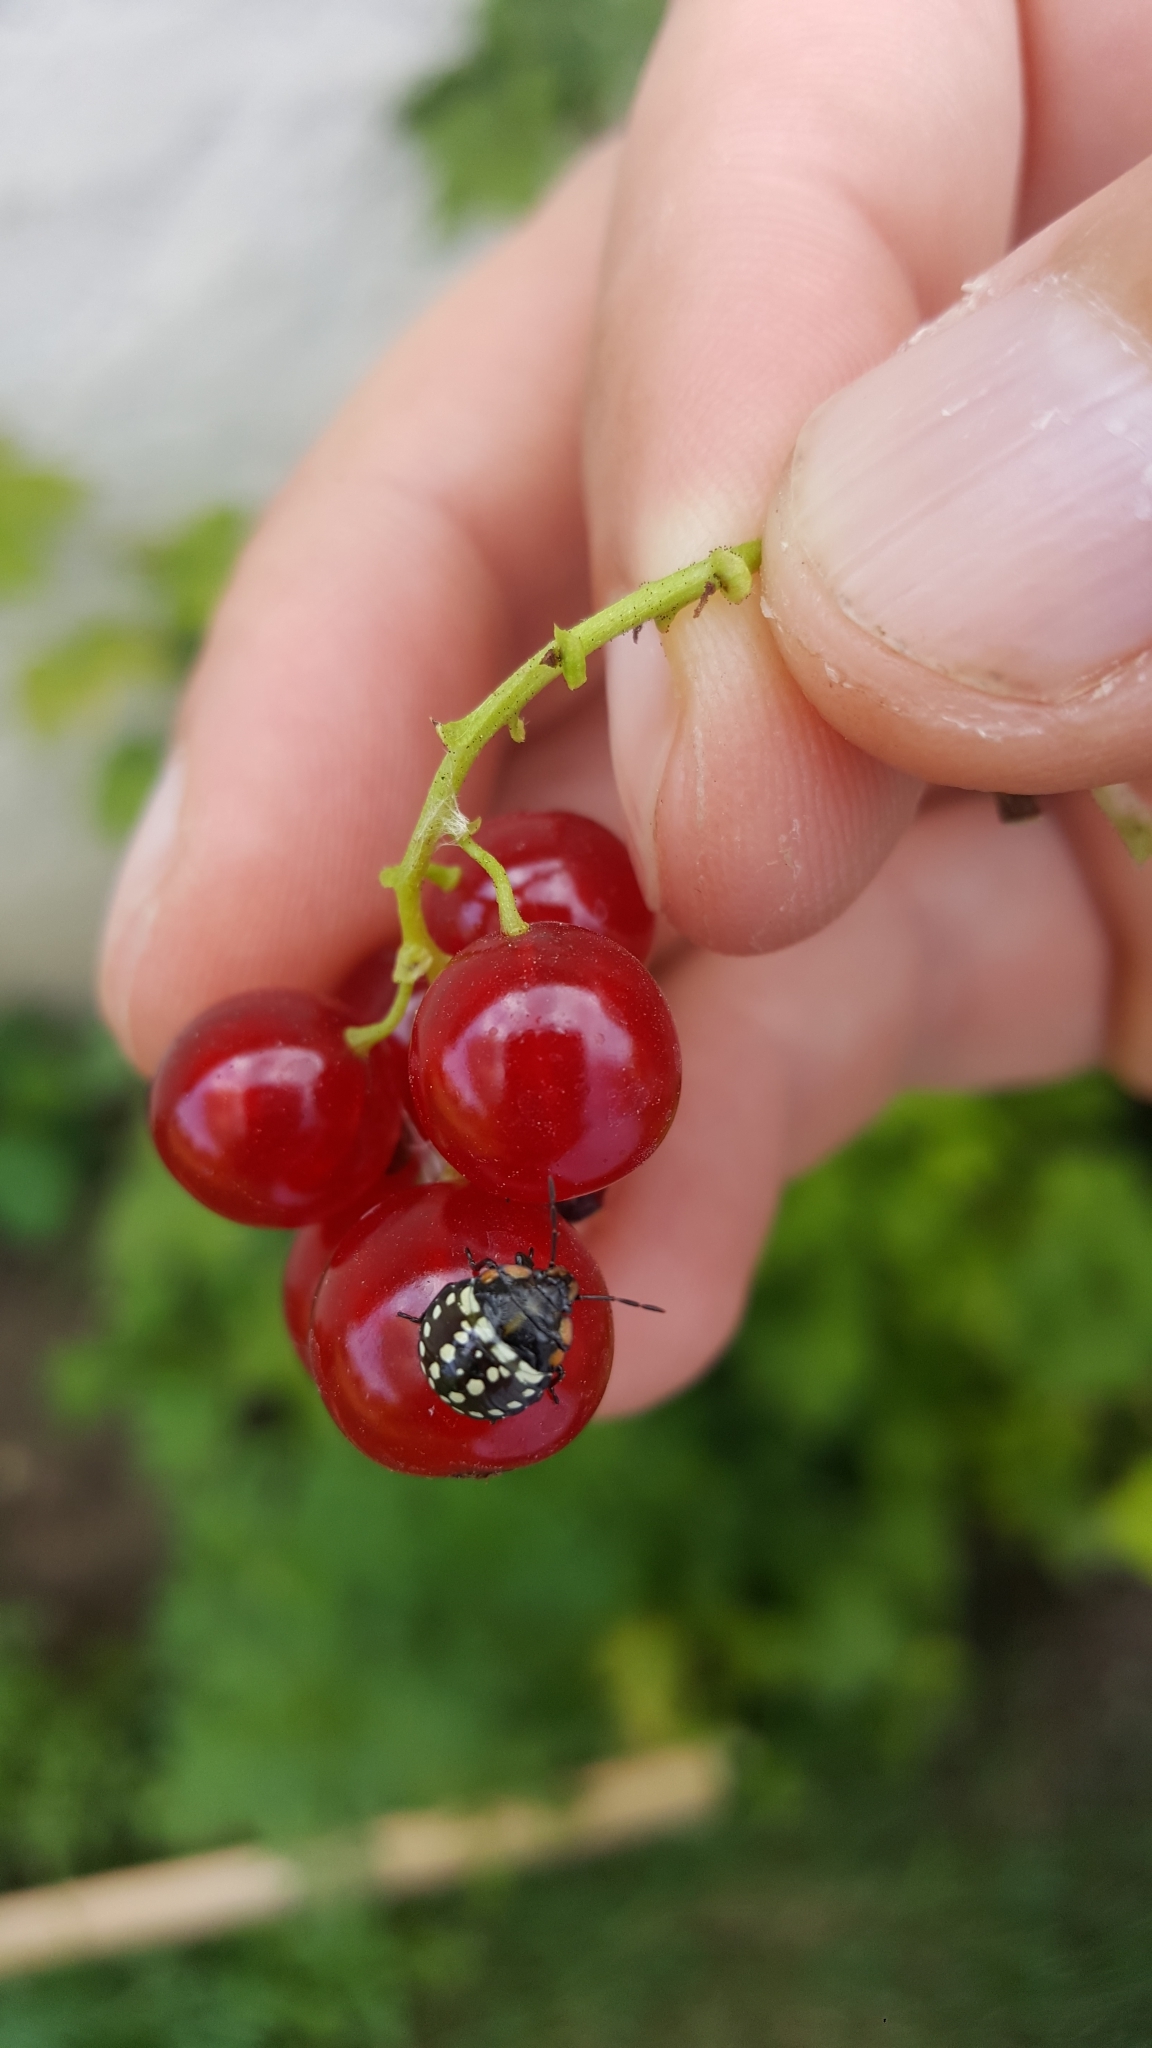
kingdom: Animalia
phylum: Arthropoda
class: Insecta
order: Hemiptera
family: Pentatomidae
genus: Nezara
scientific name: Nezara viridula
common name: Southern green stink bug
